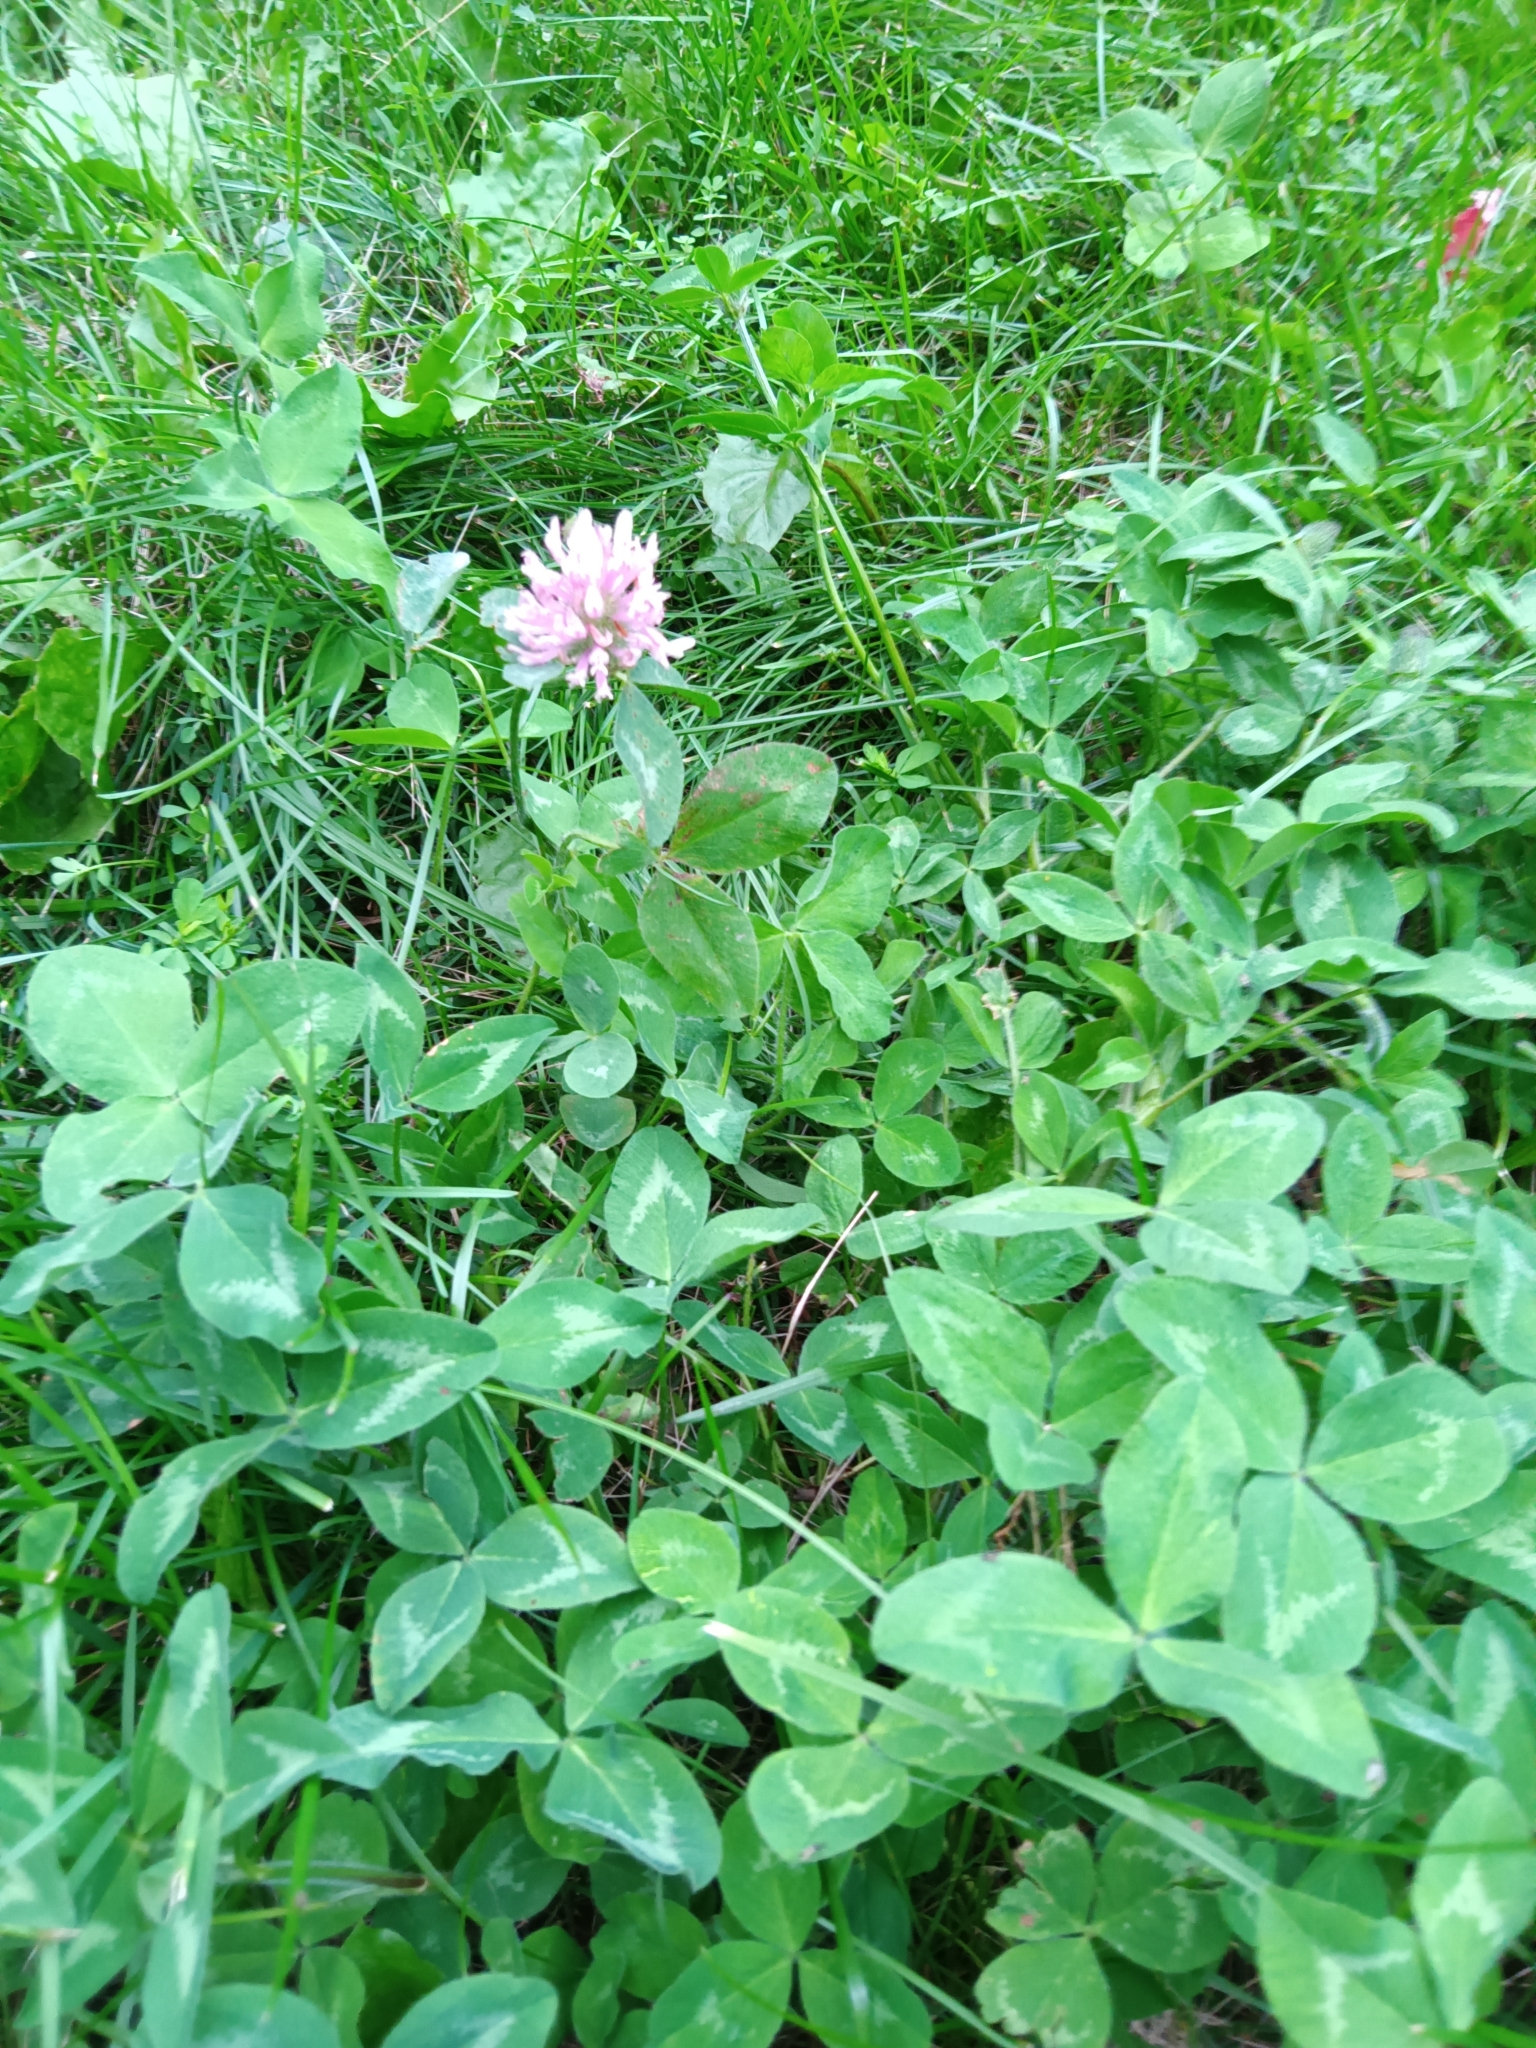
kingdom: Plantae
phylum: Tracheophyta
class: Magnoliopsida
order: Fabales
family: Fabaceae
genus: Trifolium
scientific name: Trifolium pratense
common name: Red clover
